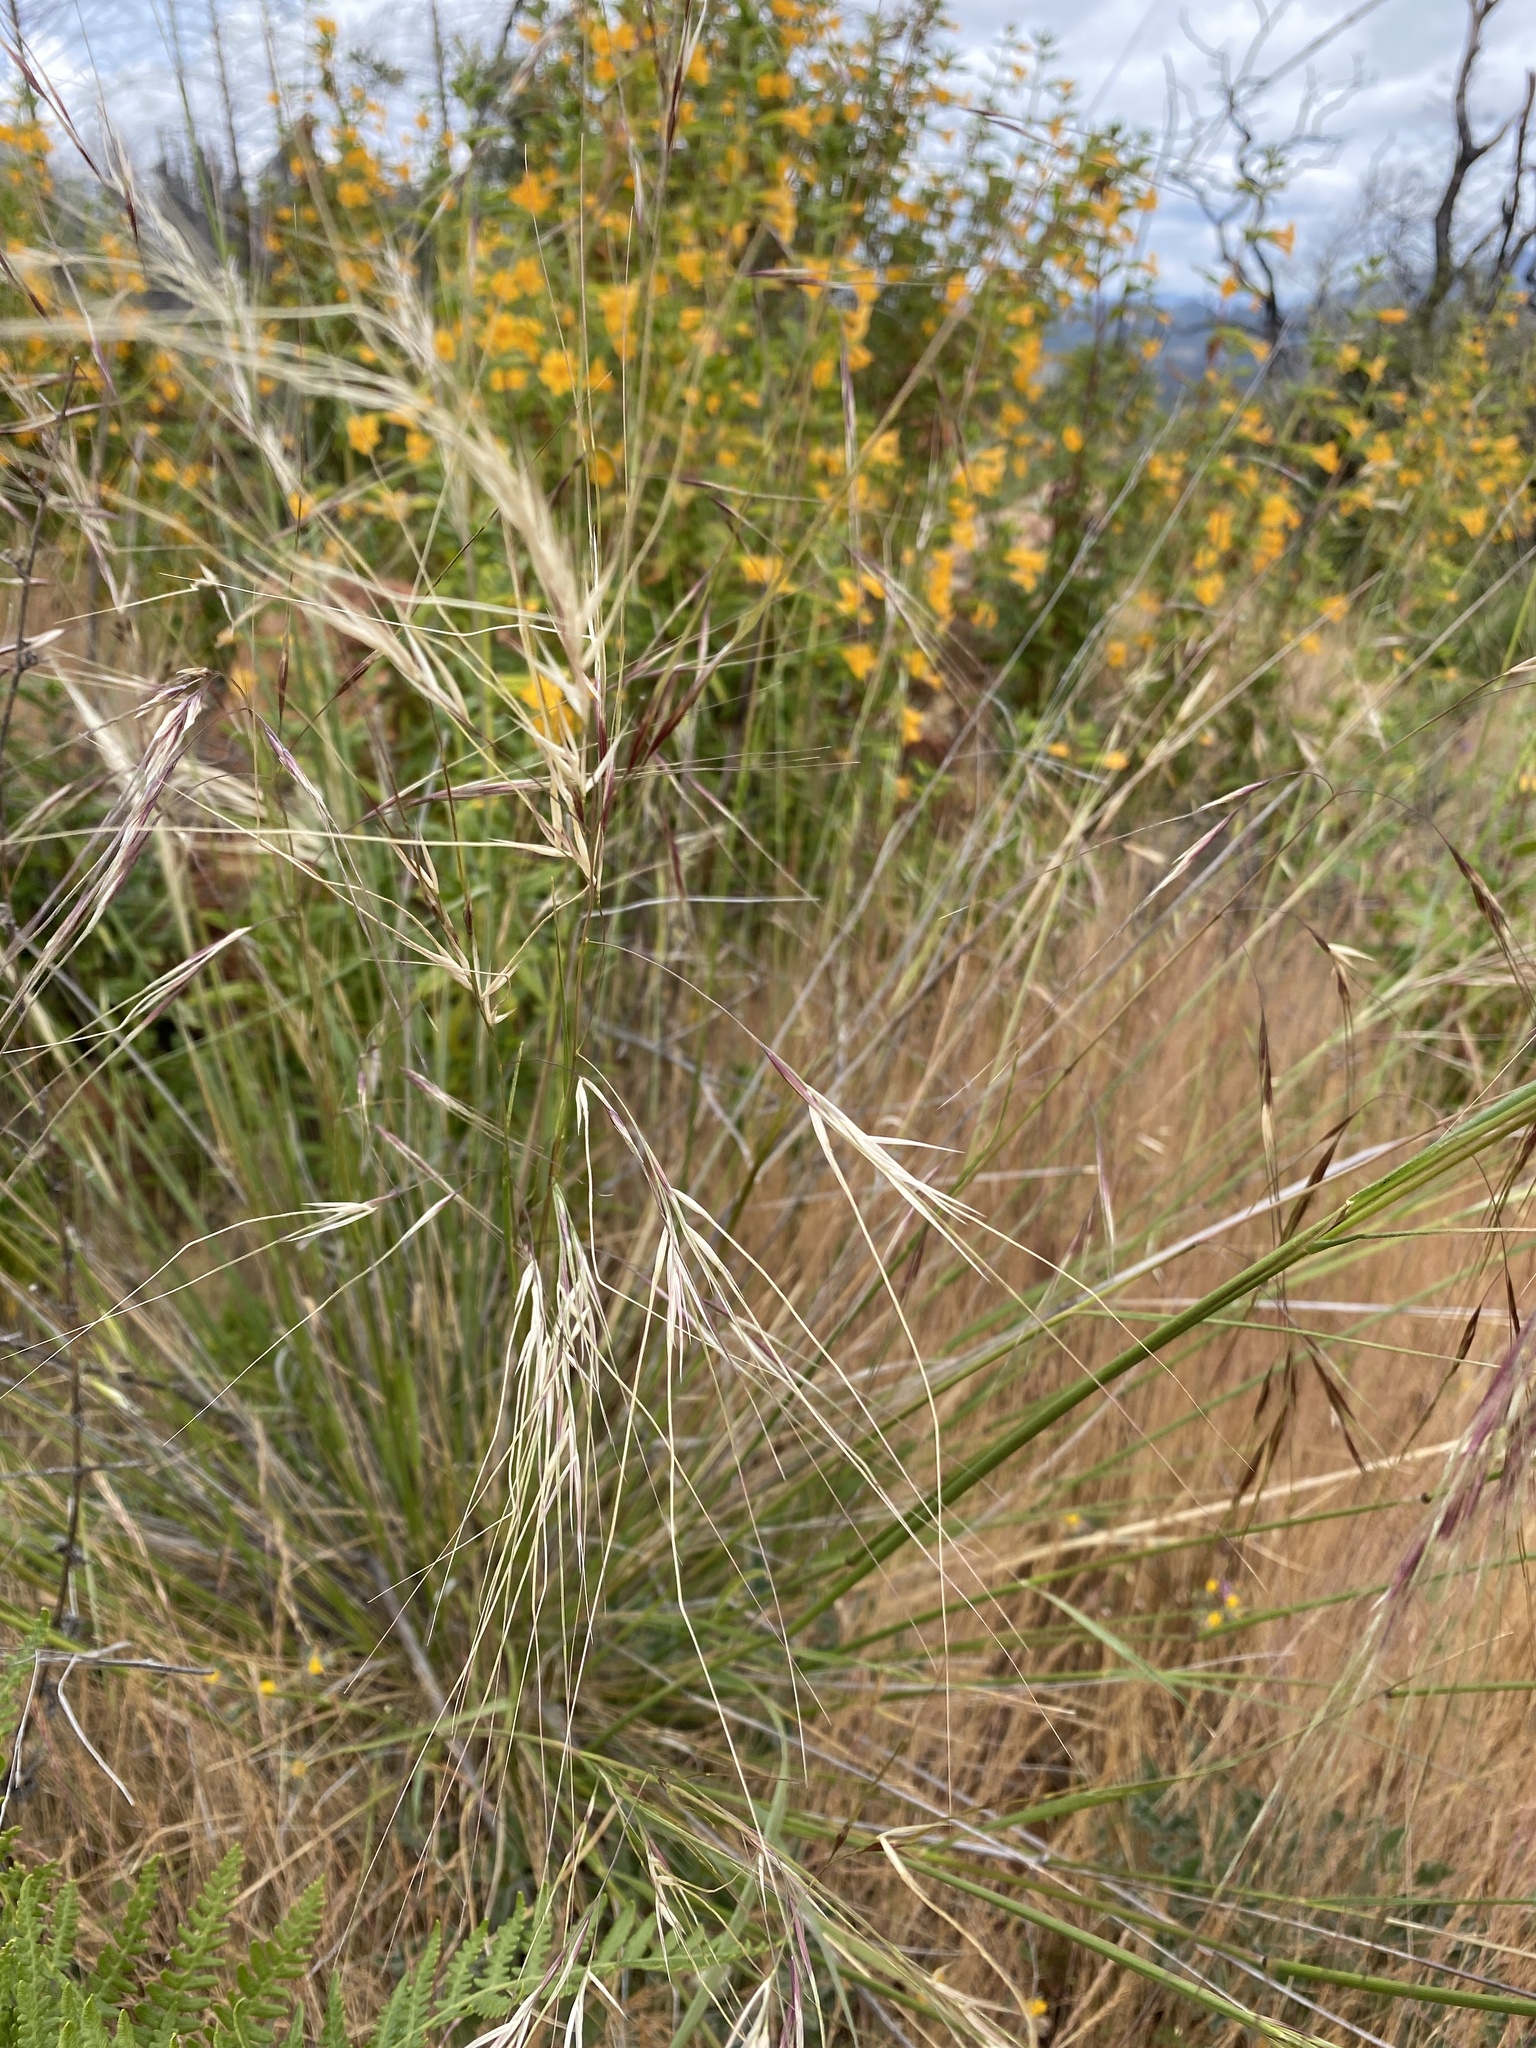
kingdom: Plantae
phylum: Tracheophyta
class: Liliopsida
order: Poales
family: Poaceae
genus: Nassella
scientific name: Nassella pulchra
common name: Purple needlegrass
